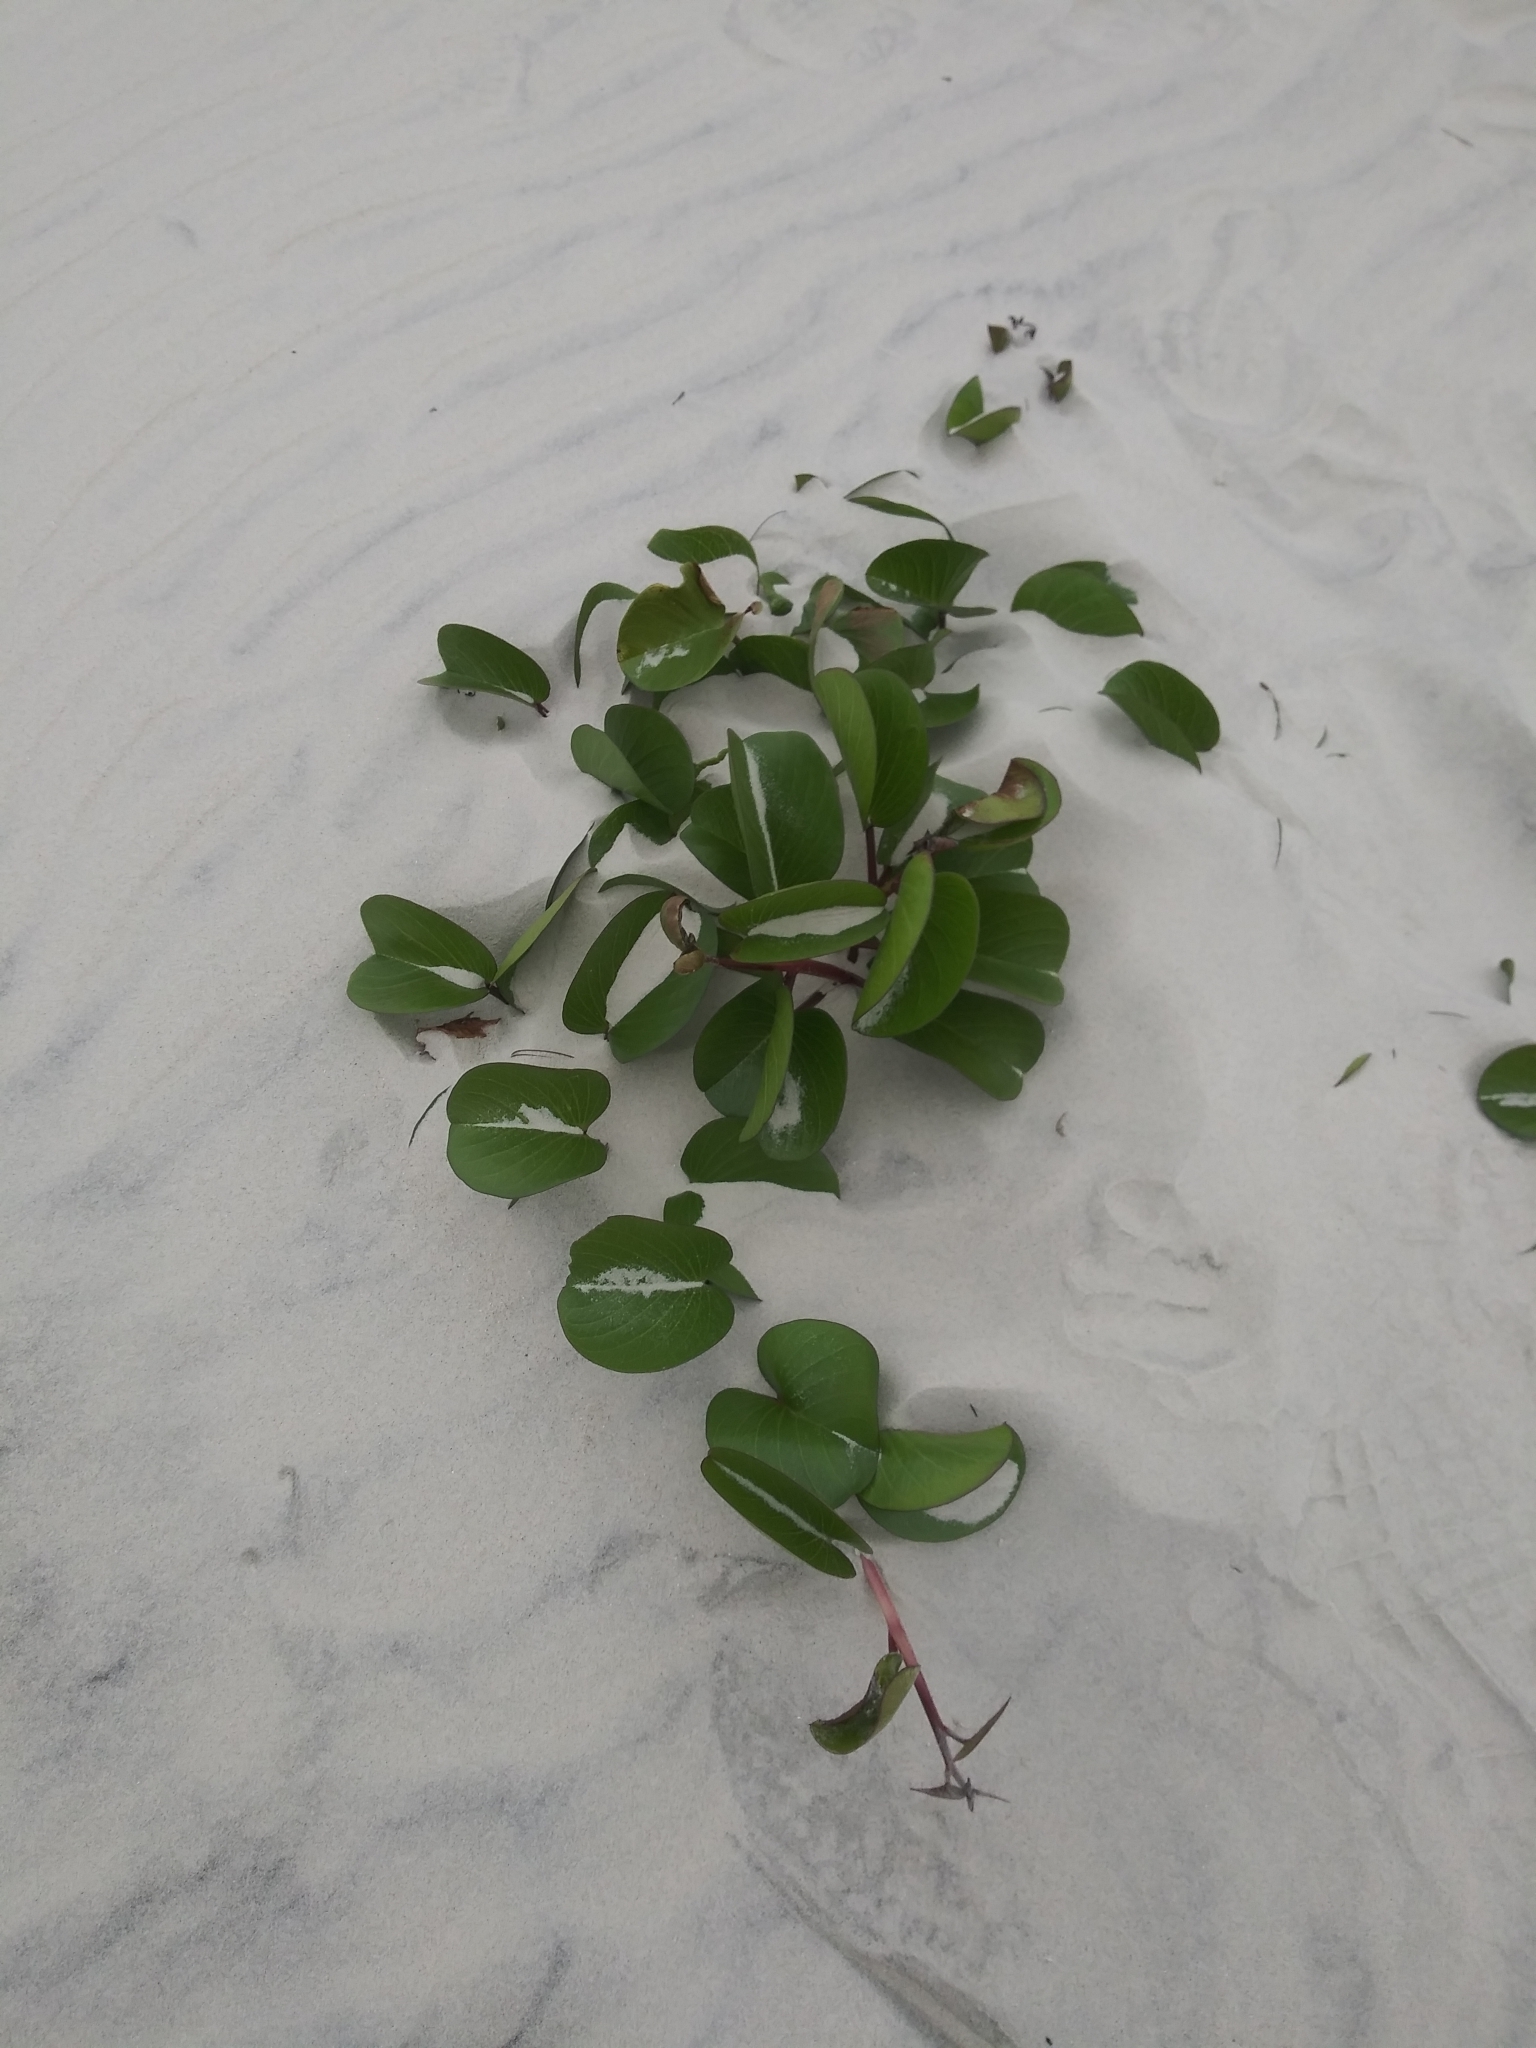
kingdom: Plantae
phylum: Tracheophyta
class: Magnoliopsida
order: Solanales
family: Convolvulaceae
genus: Ipomoea
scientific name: Ipomoea pes-caprae
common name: Beach morning glory
